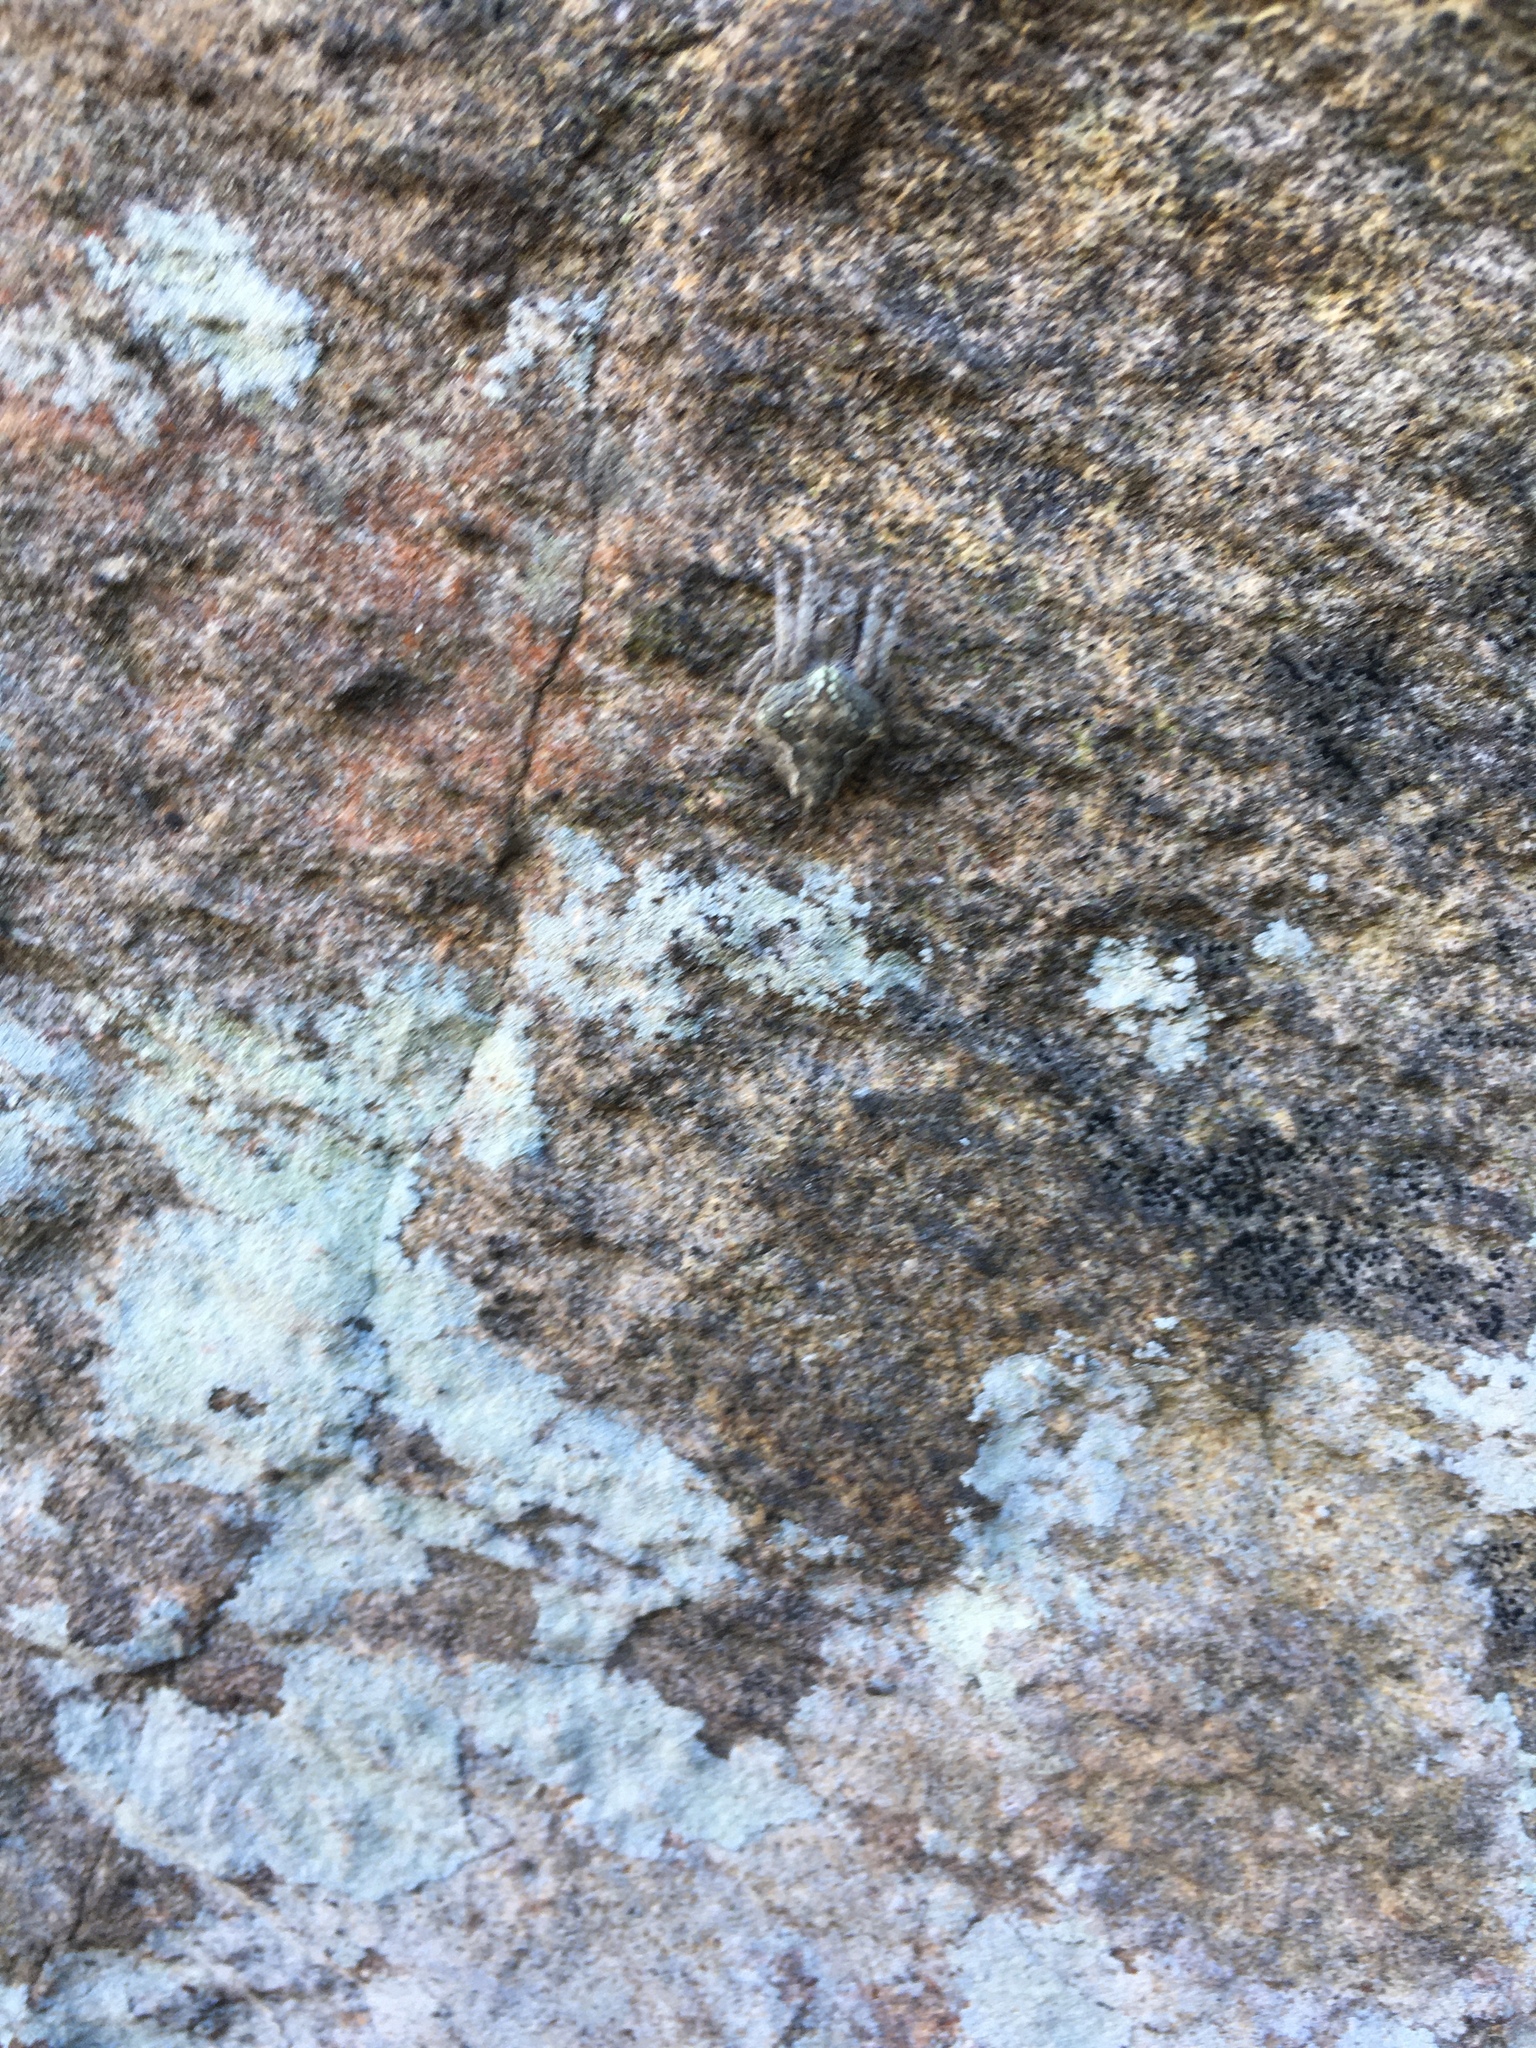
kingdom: Animalia
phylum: Arthropoda
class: Arachnida
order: Araneae
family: Araneidae
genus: Eriophora
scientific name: Eriophora pustulosa
